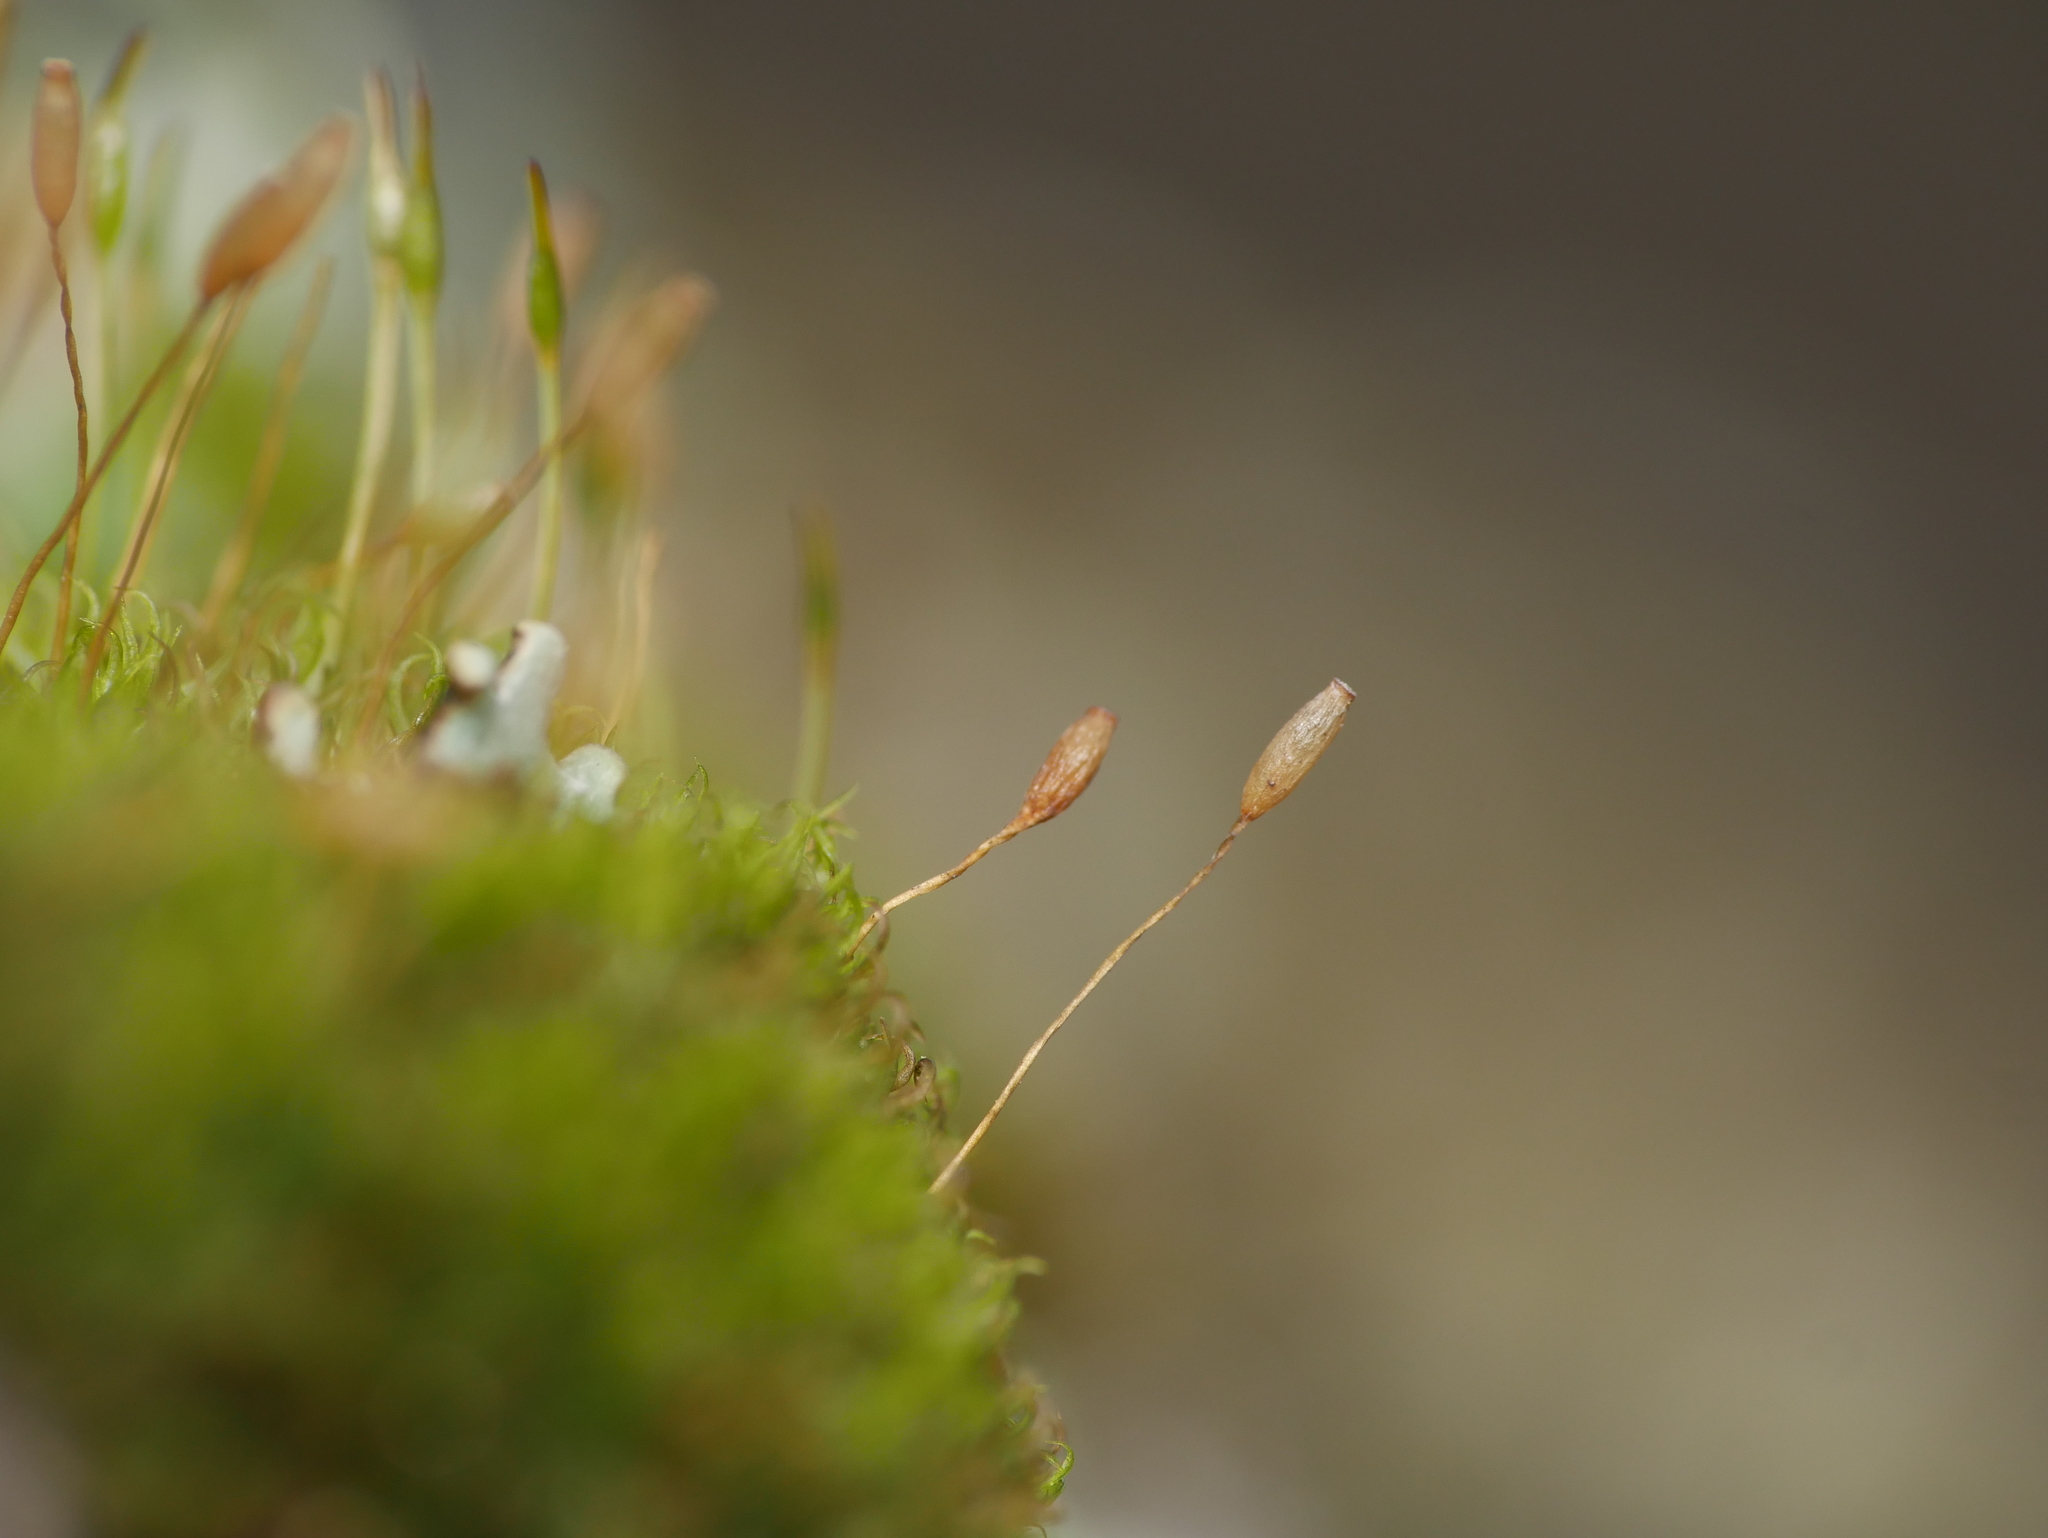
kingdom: Plantae
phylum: Bryophyta
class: Bryopsida
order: Dicranales
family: Rhabdoweisiaceae
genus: Dicranoweisia
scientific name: Dicranoweisia cirrata
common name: Common pincushion
